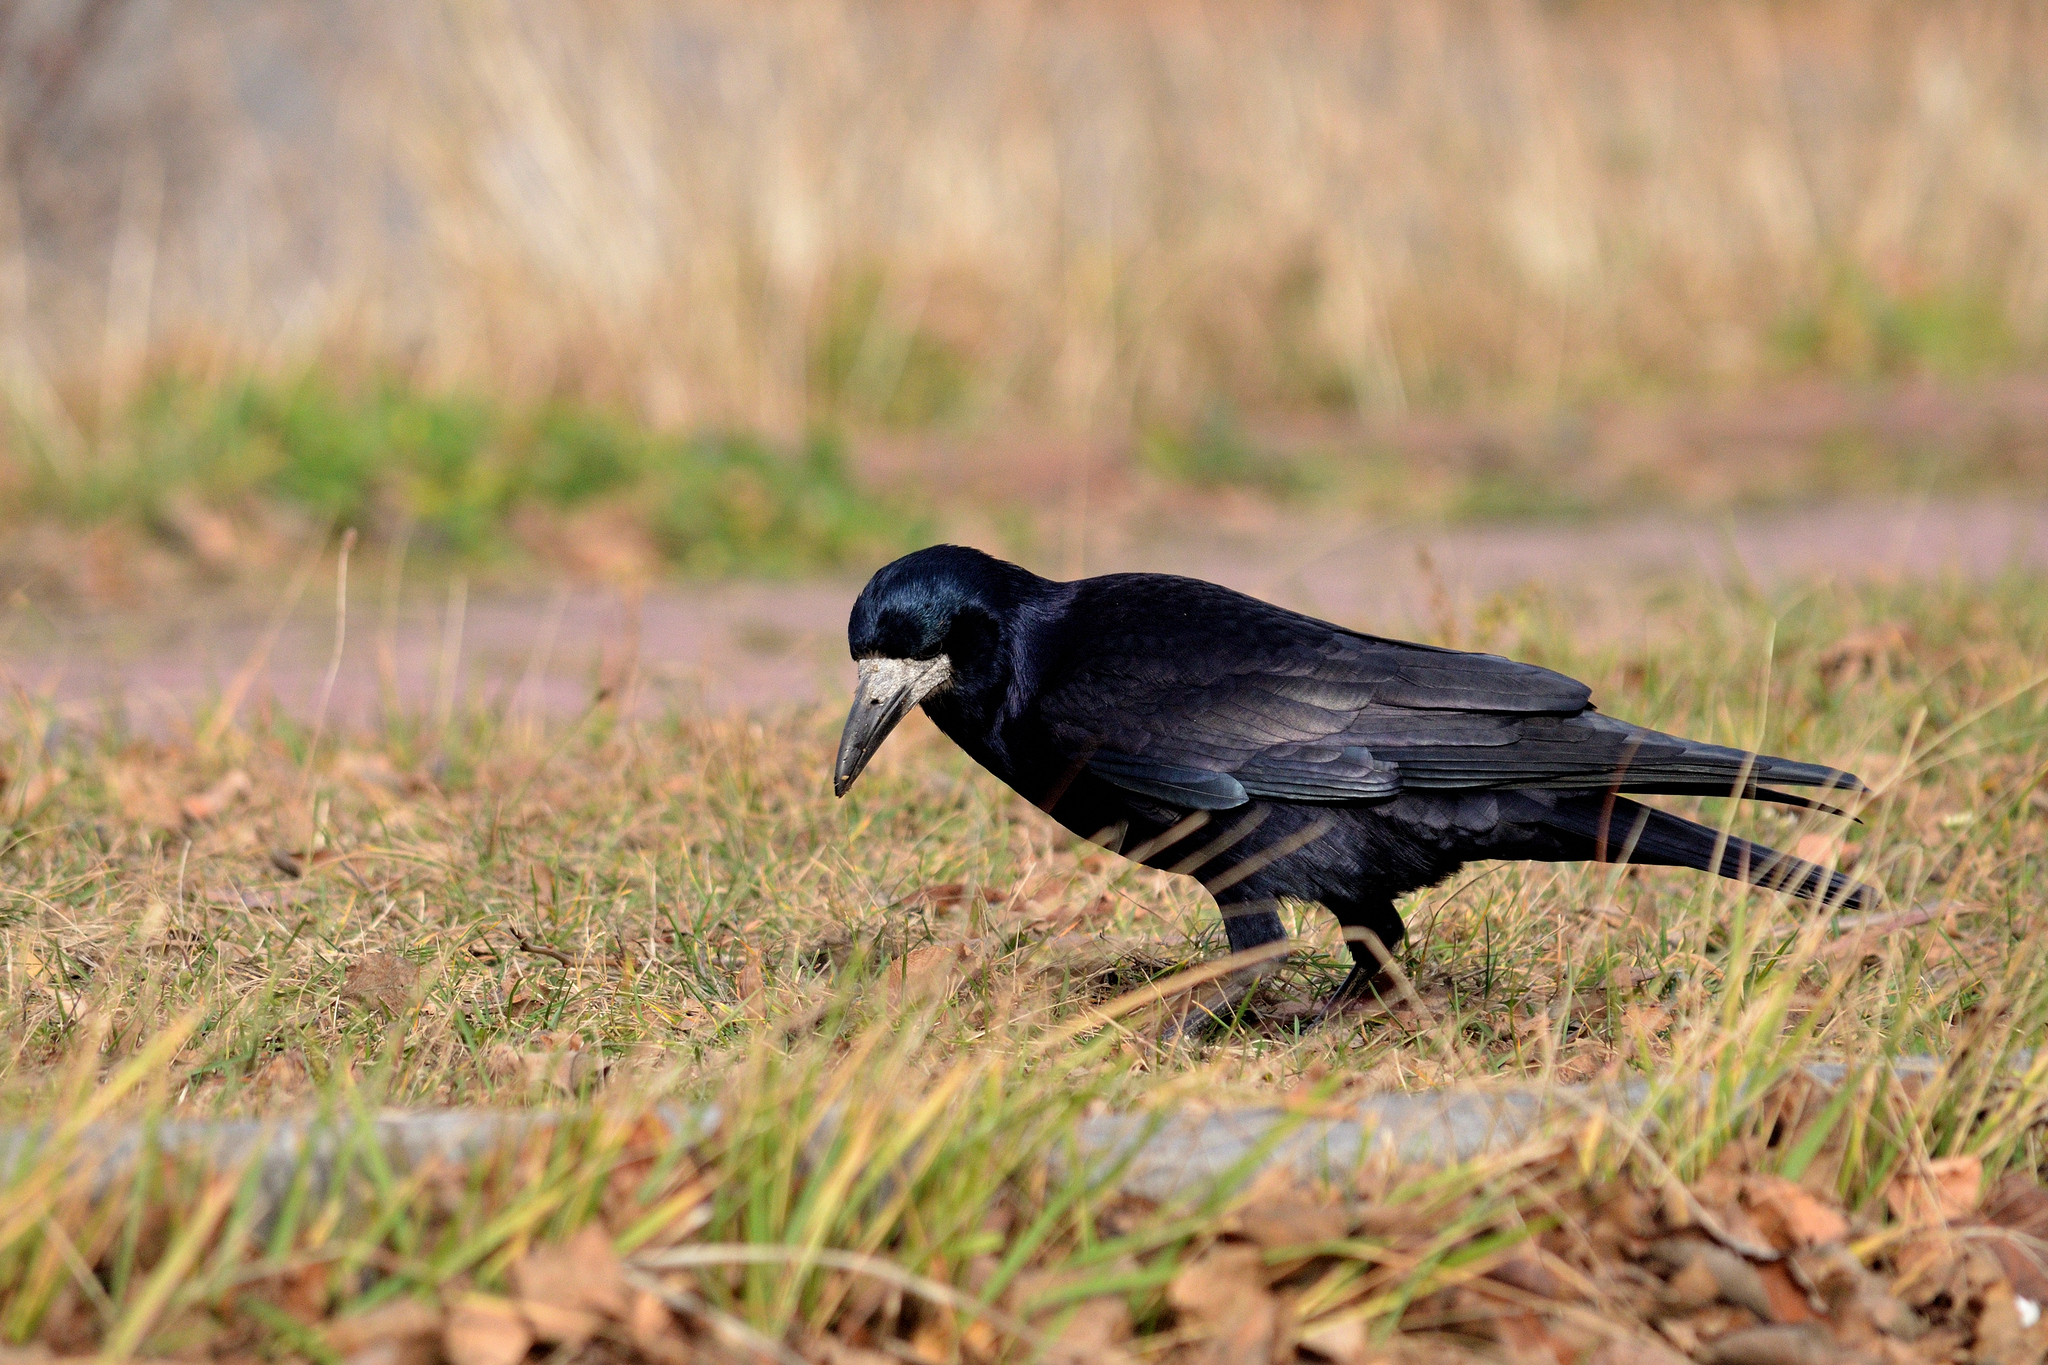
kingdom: Animalia
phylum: Chordata
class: Aves
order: Passeriformes
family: Corvidae
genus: Corvus
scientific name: Corvus frugilegus
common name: Rook
